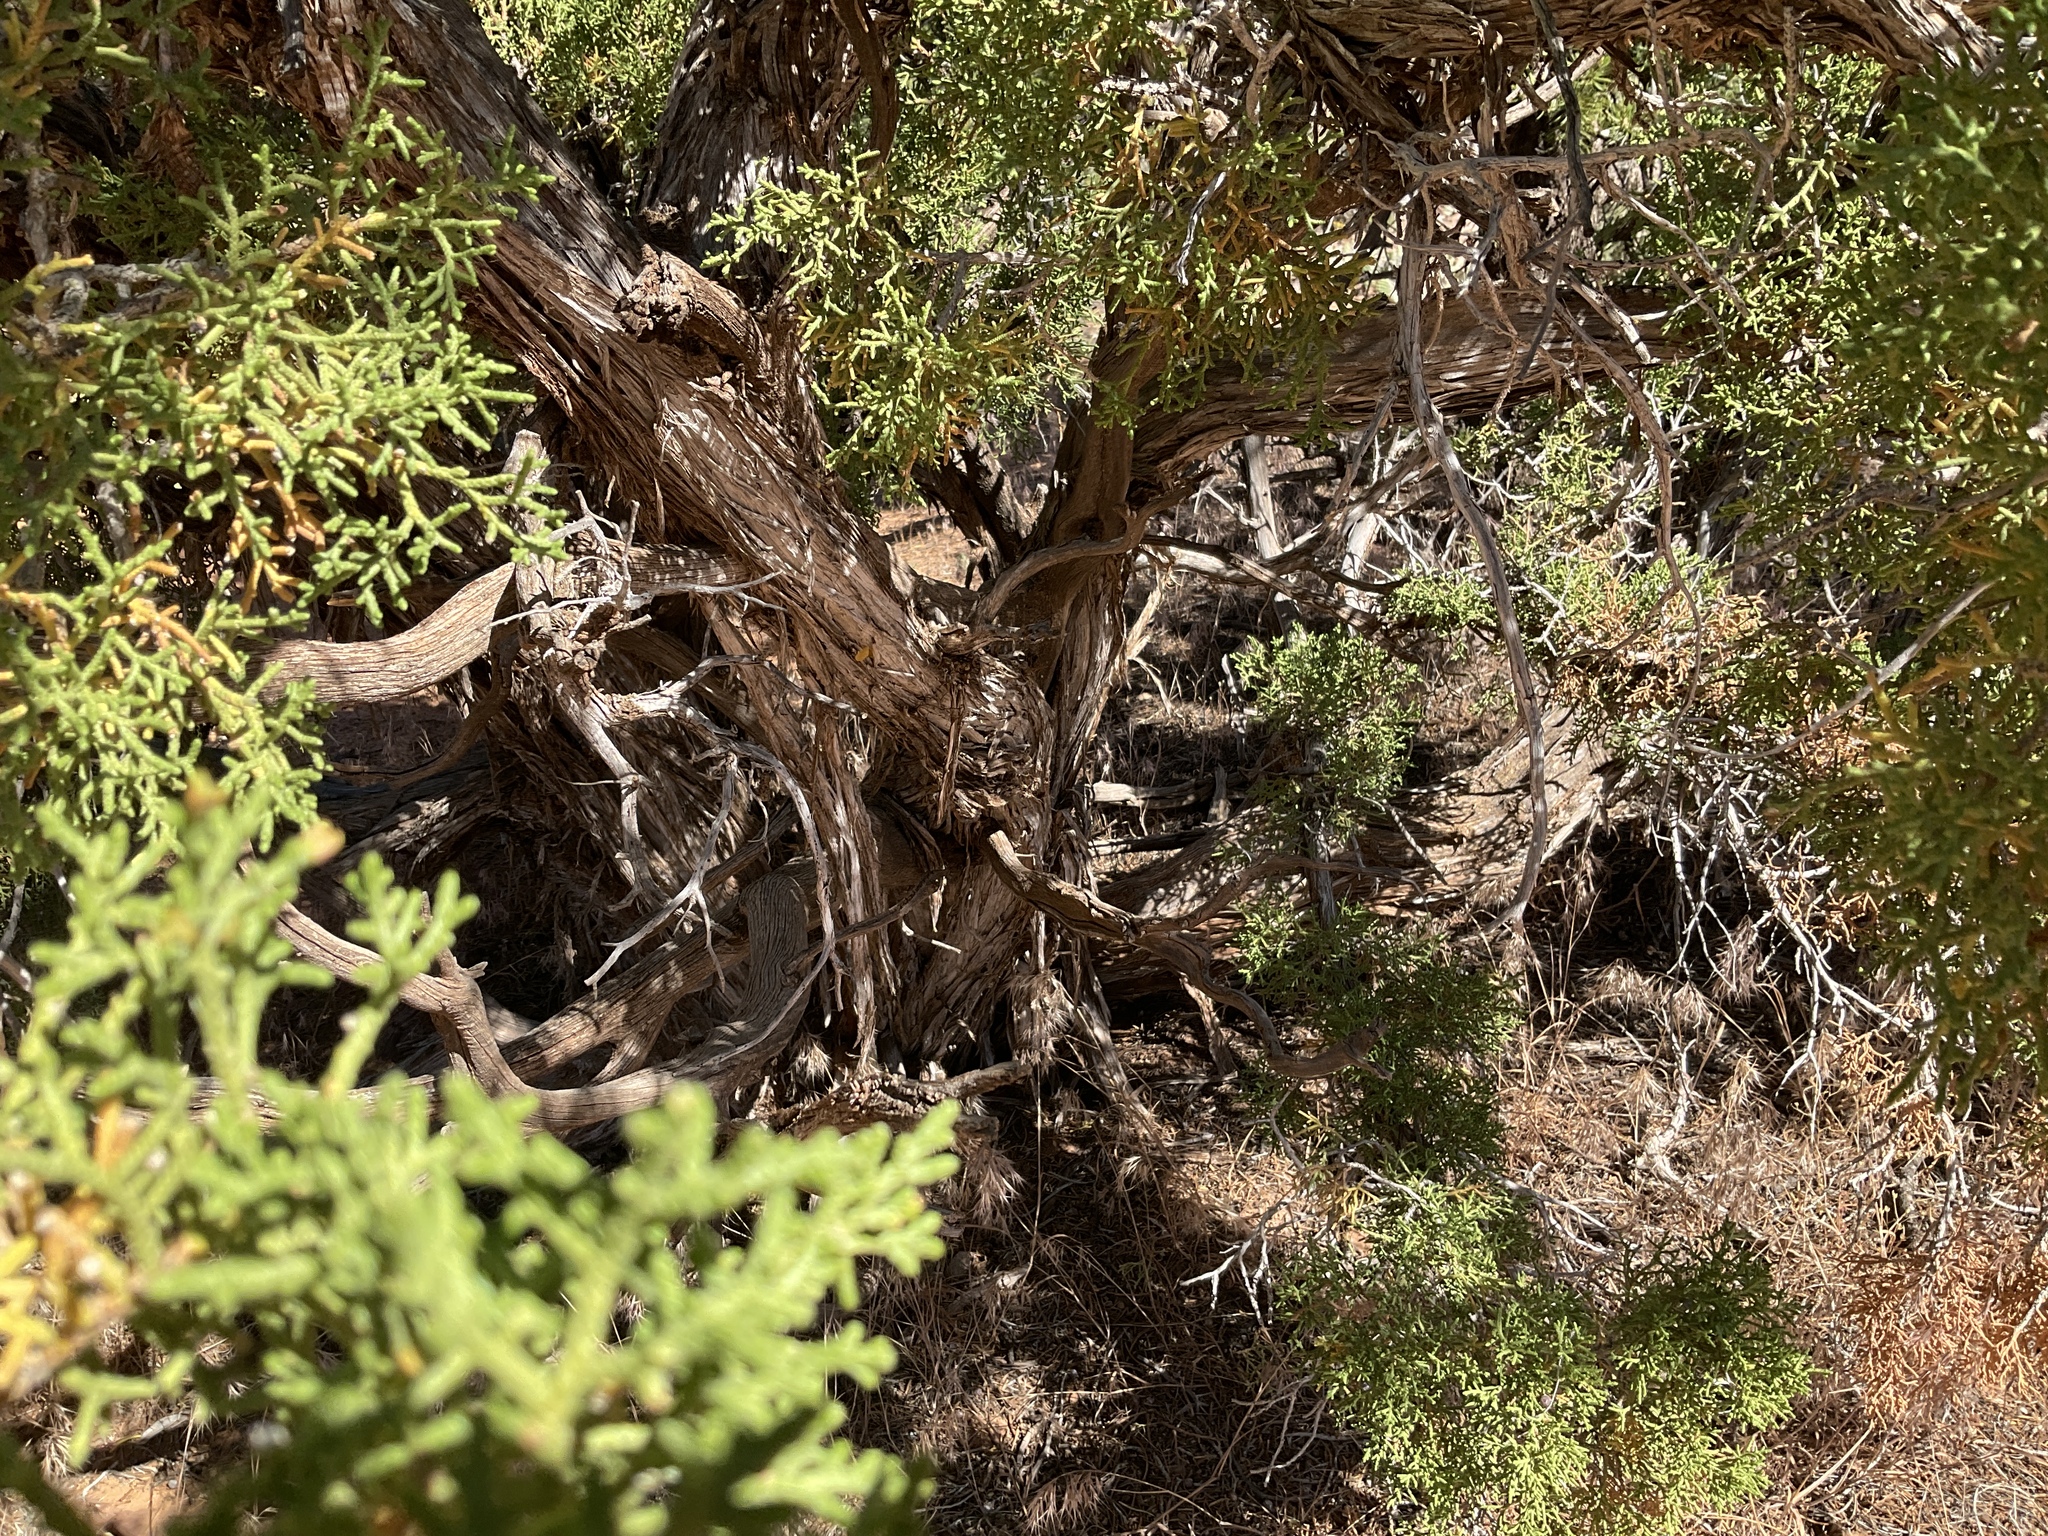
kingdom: Plantae
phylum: Tracheophyta
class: Pinopsida
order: Pinales
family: Cupressaceae
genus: Juniperus
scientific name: Juniperus osteosperma
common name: Utah juniper
